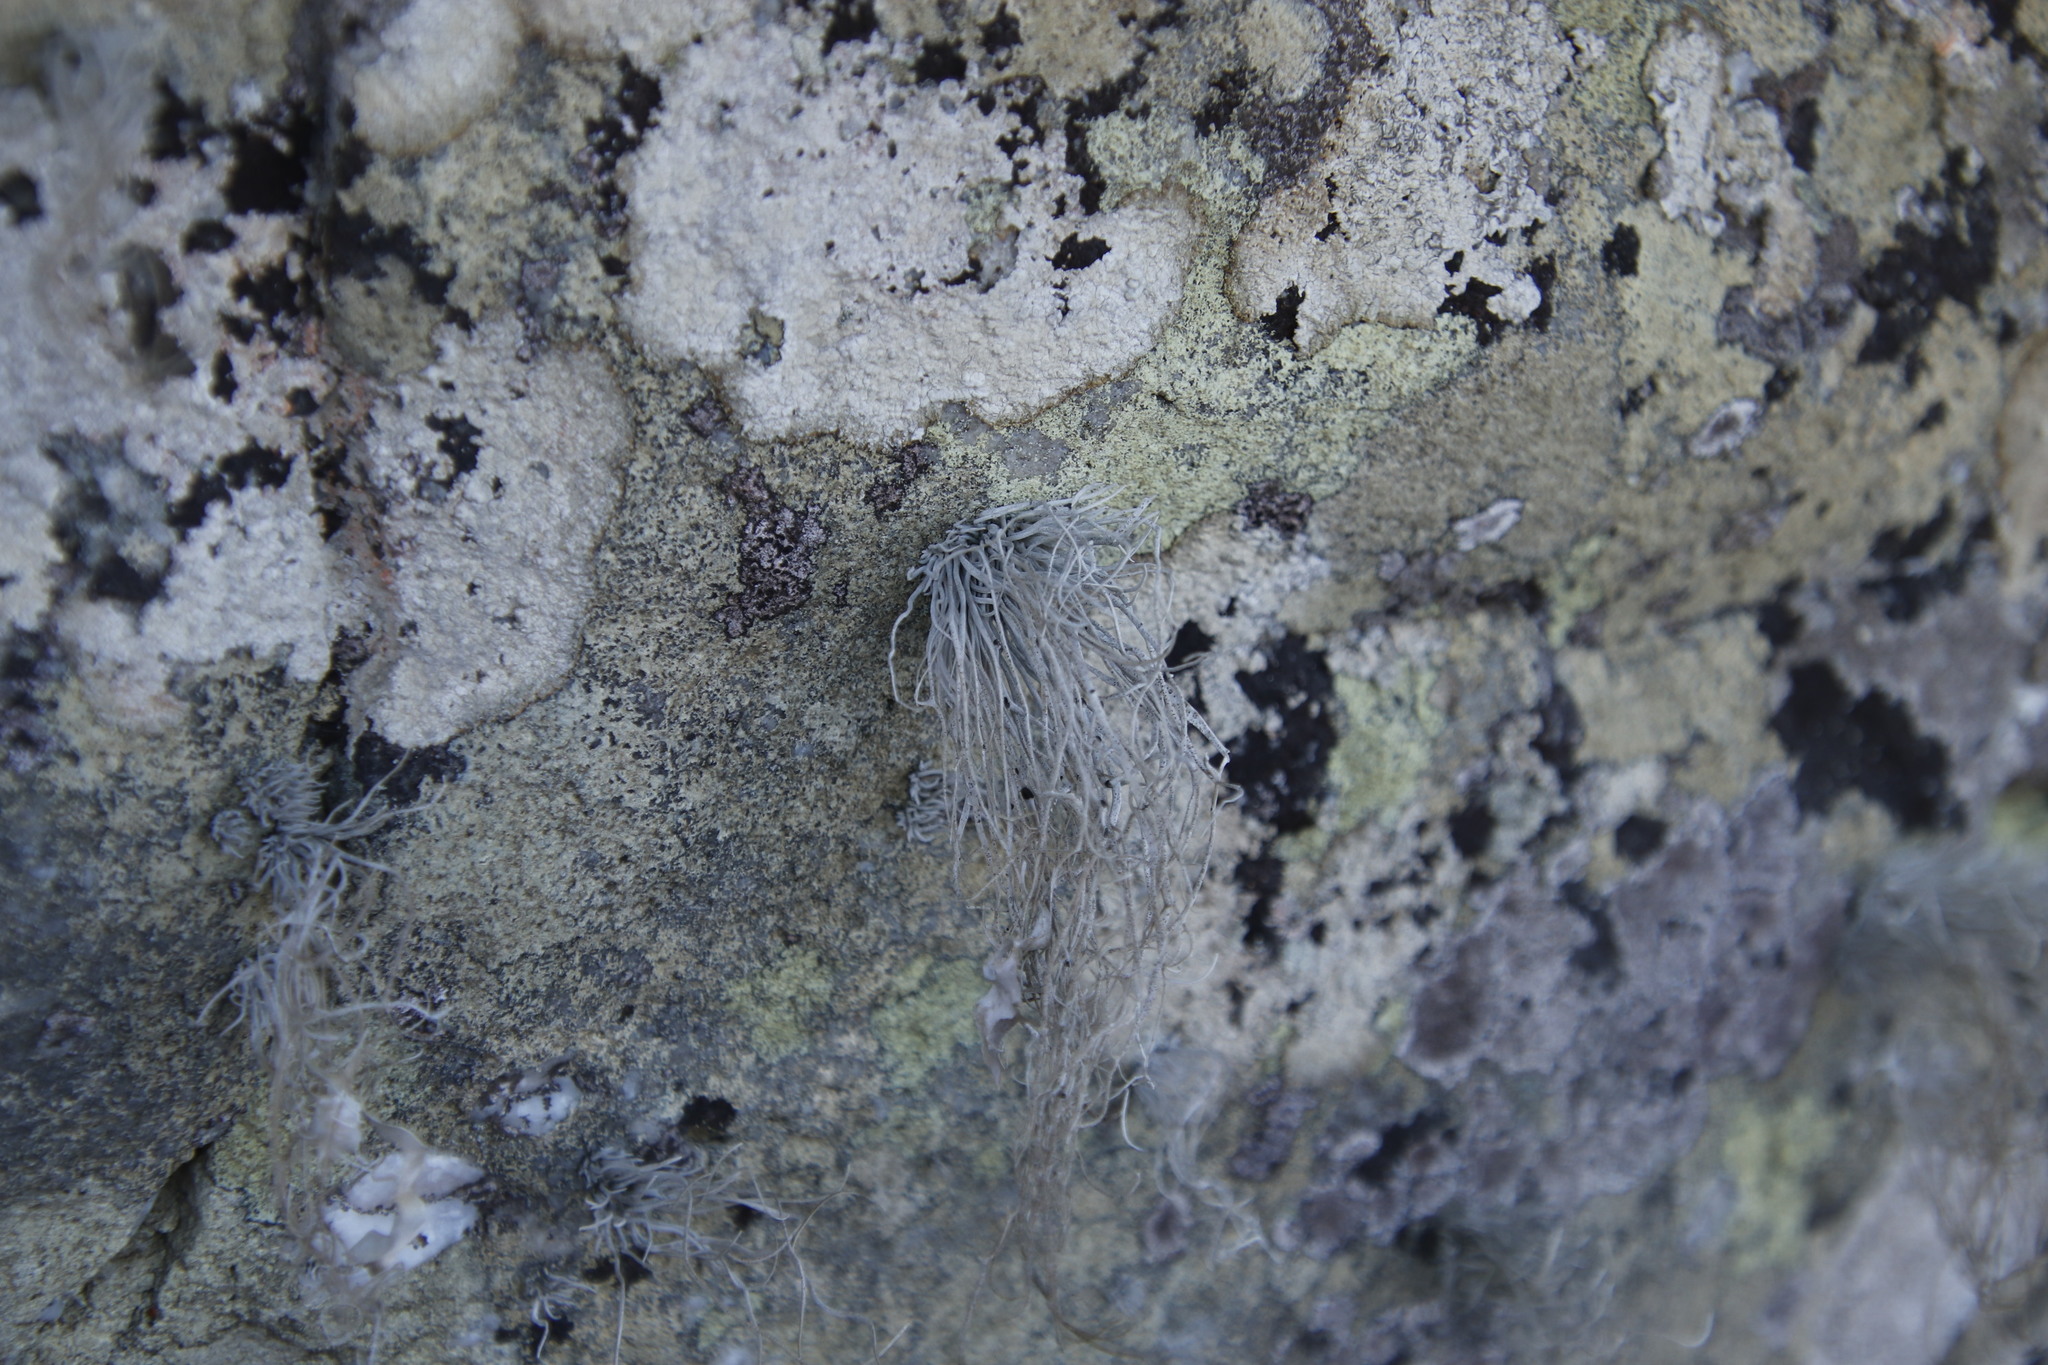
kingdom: Fungi
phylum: Ascomycota
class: Arthoniomycetes
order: Arthoniales
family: Roccellaceae
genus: Roccellina
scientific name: Roccellina hypomecha
